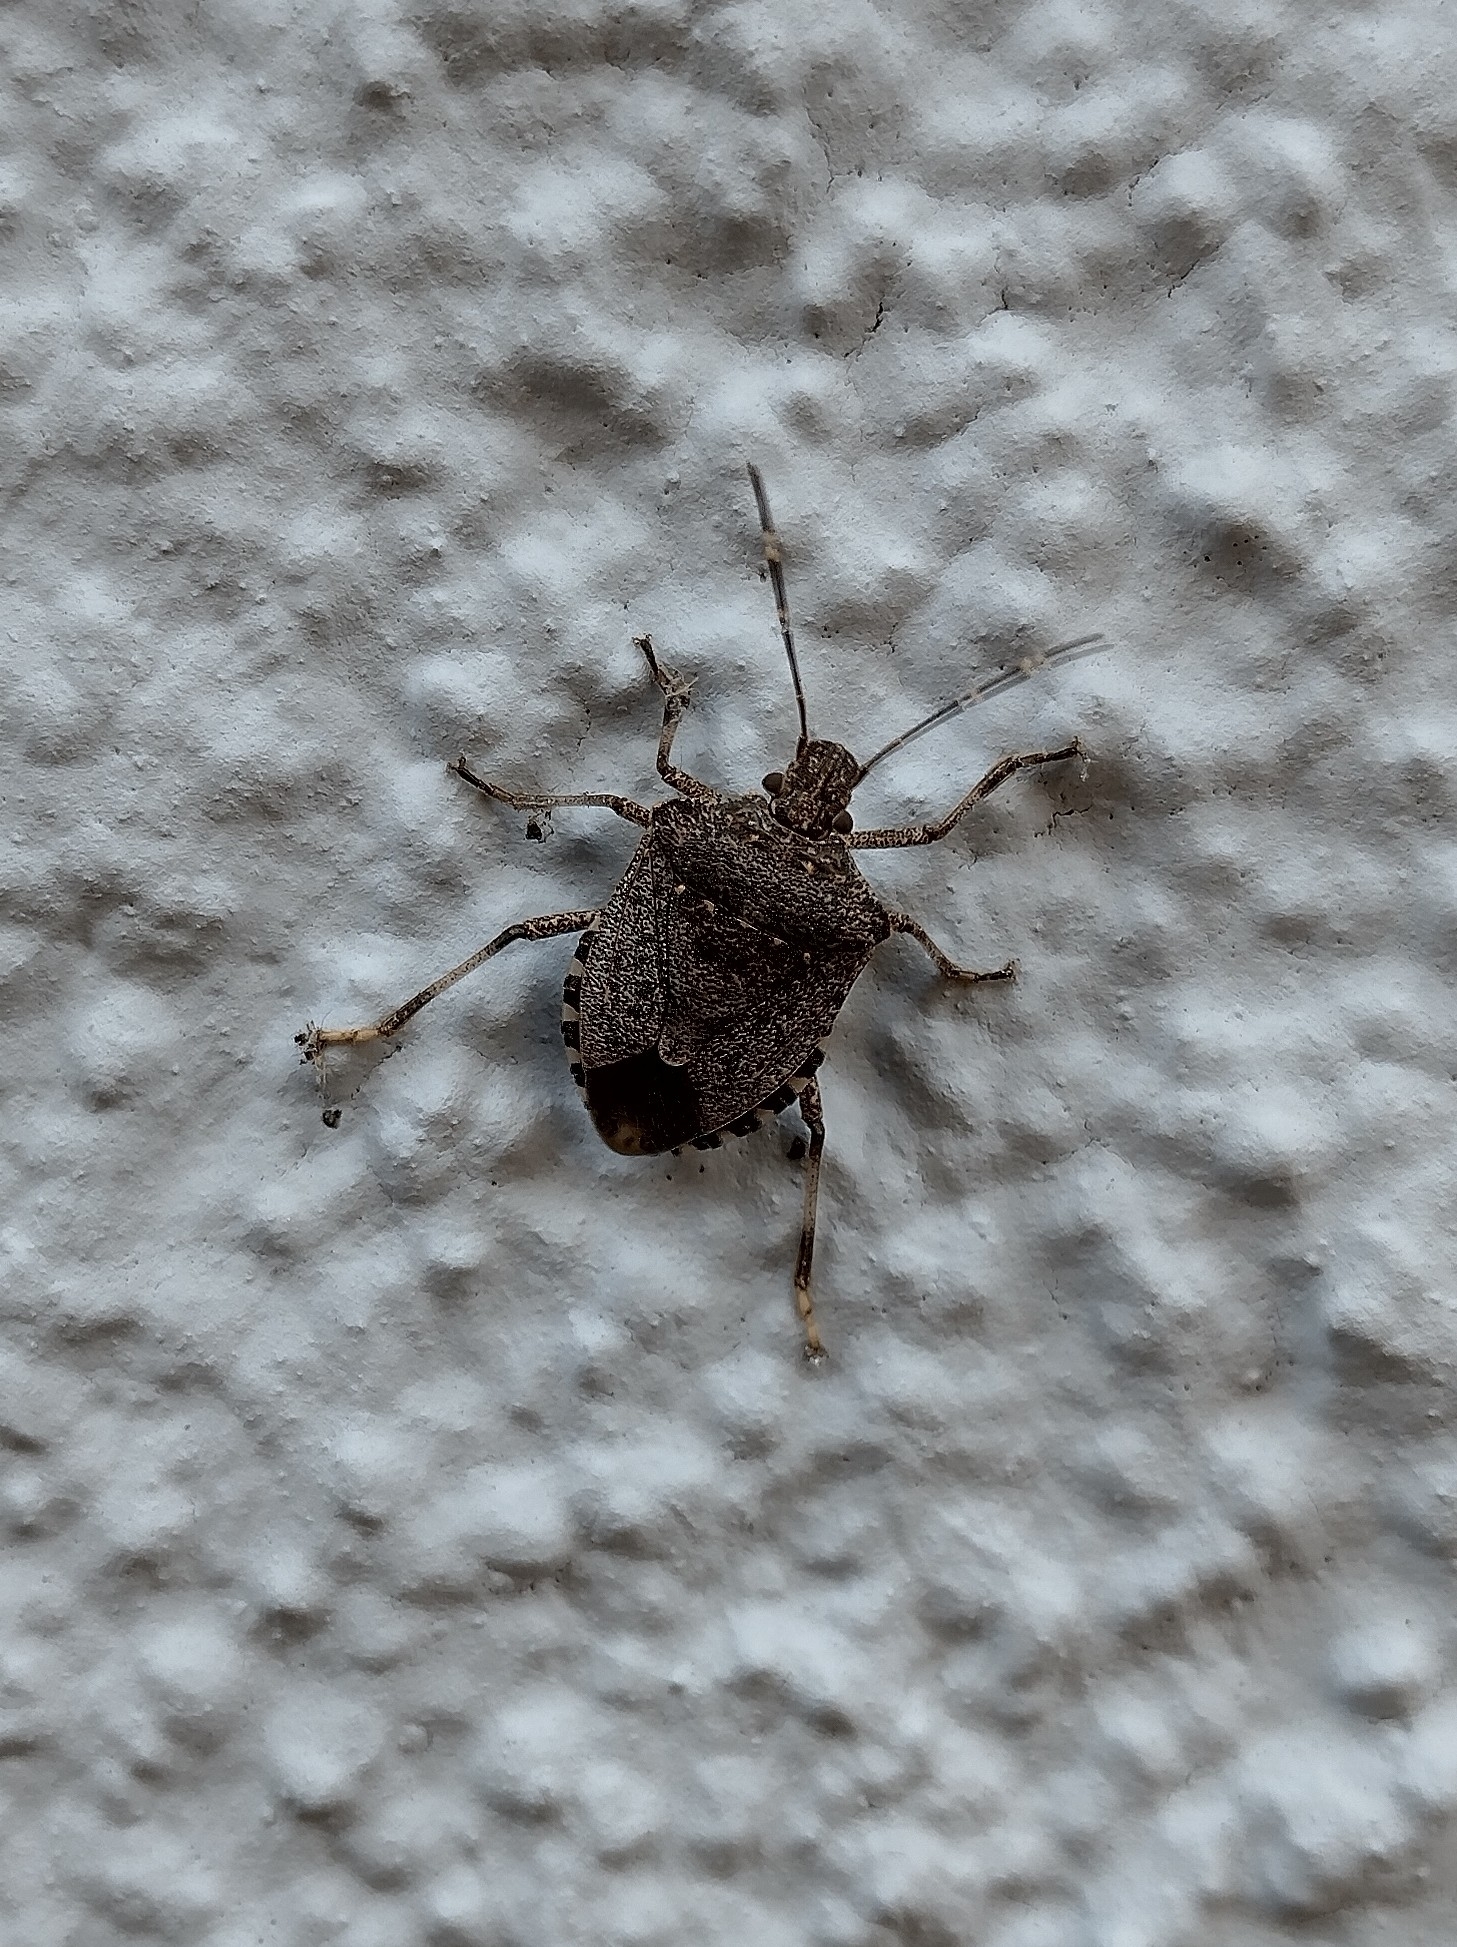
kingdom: Animalia
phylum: Arthropoda
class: Insecta
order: Hemiptera
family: Pentatomidae
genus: Halyomorpha
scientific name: Halyomorpha halys
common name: Brown marmorated stink bug
